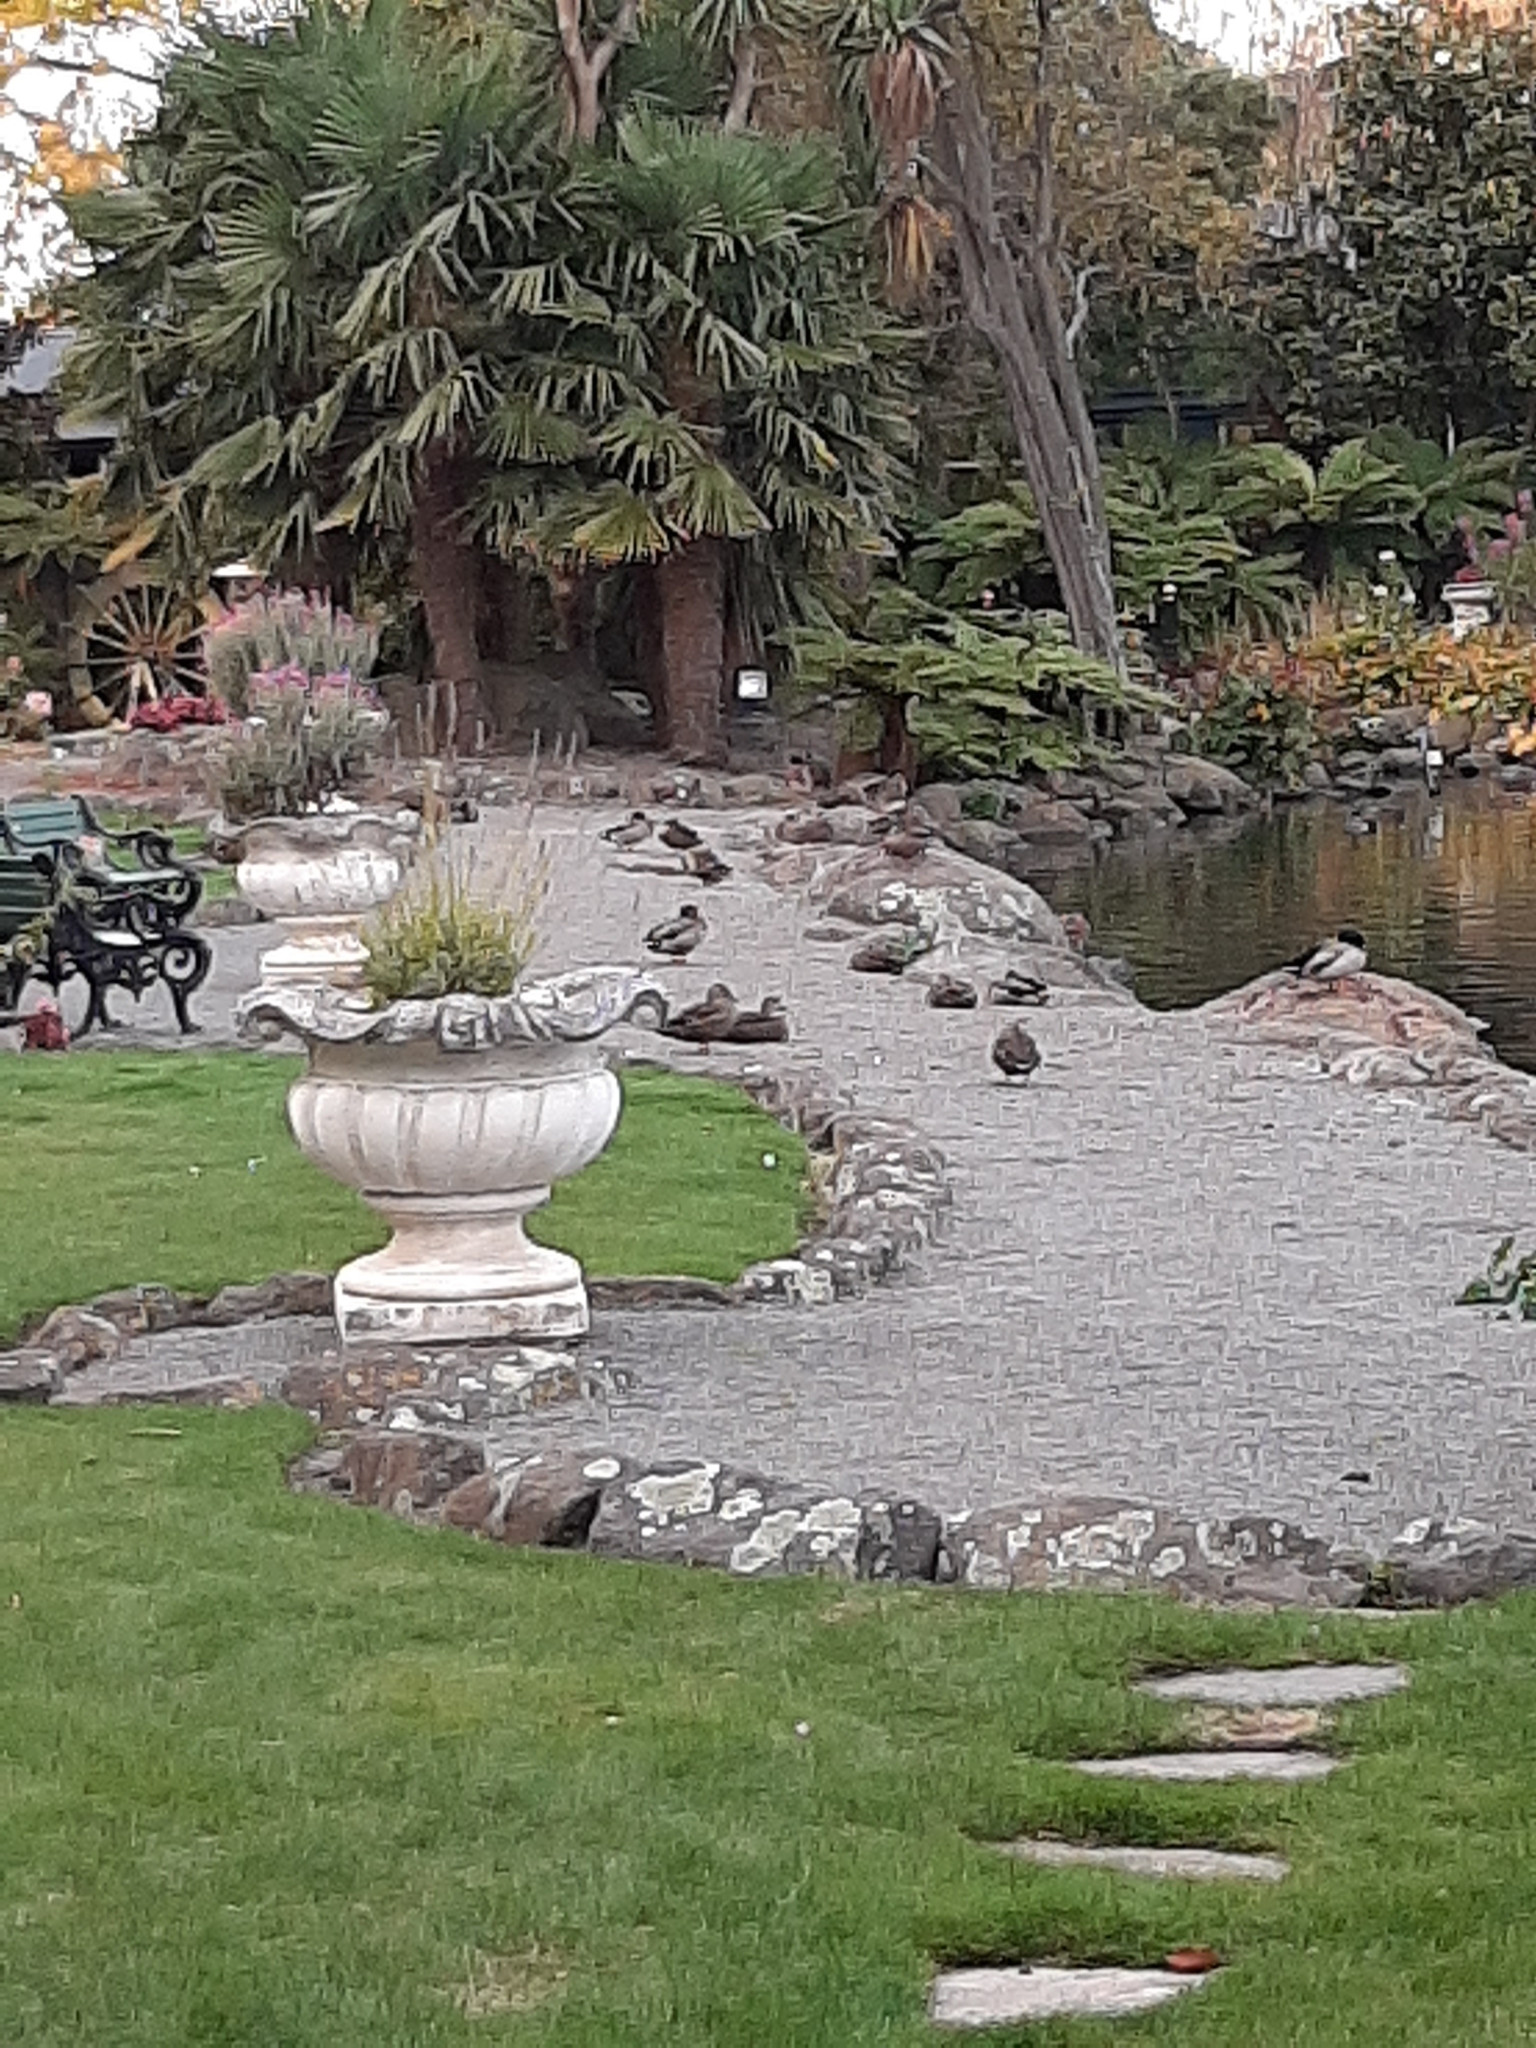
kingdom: Animalia
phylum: Chordata
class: Aves
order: Anseriformes
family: Anatidae
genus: Anas
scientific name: Anas
